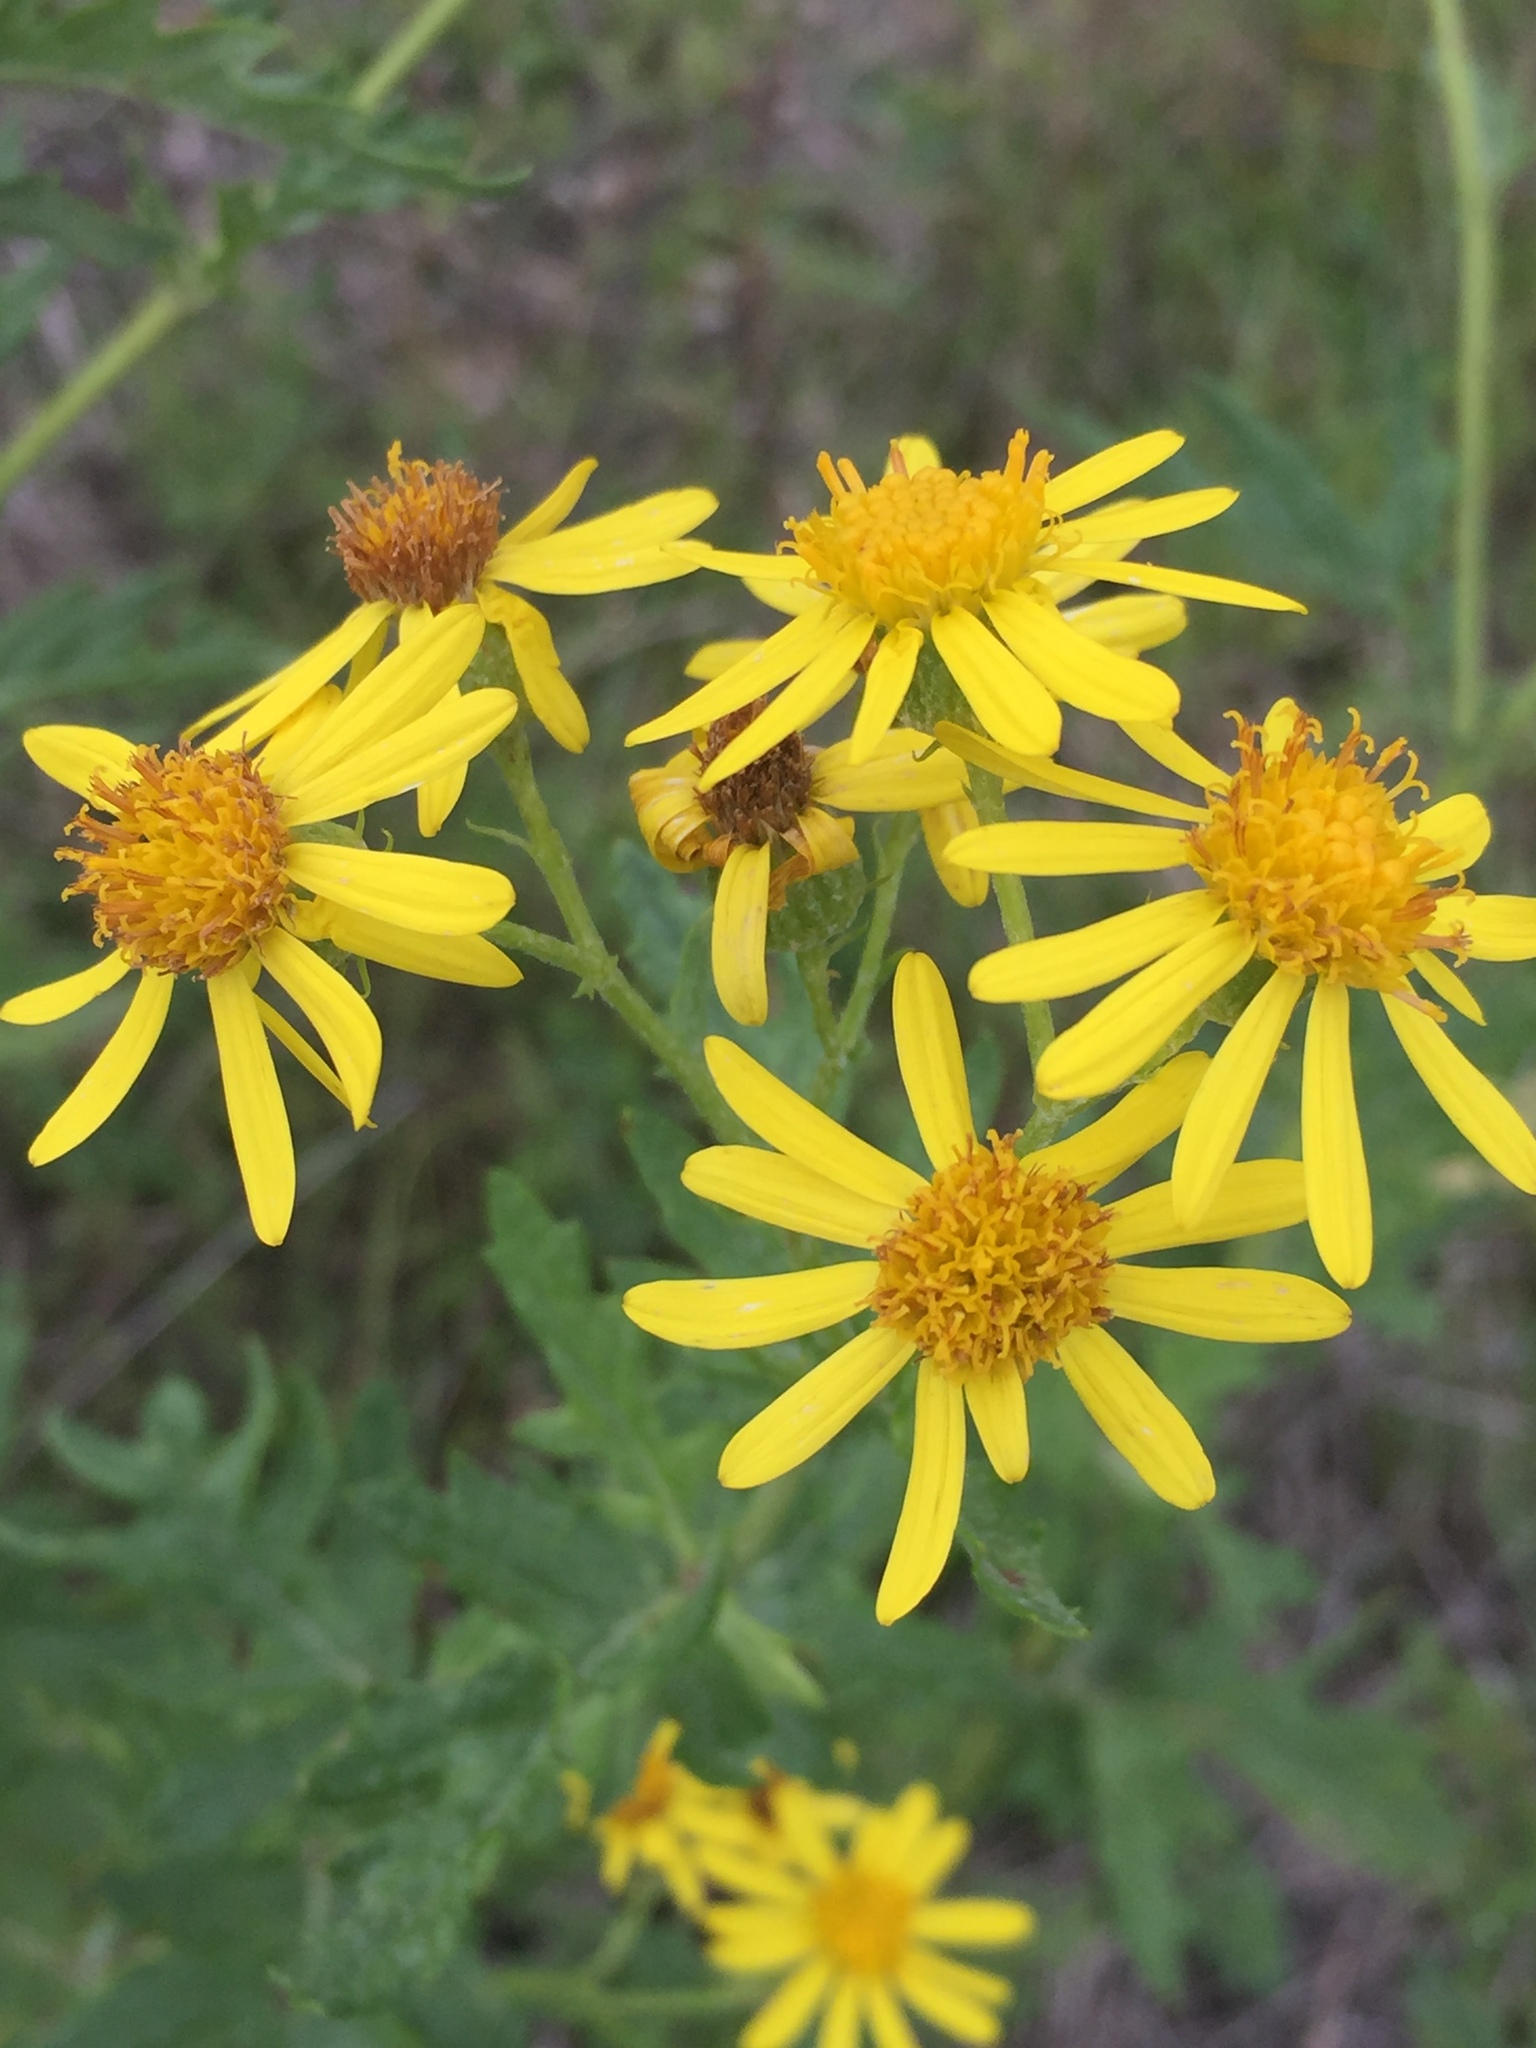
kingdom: Plantae
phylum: Tracheophyta
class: Magnoliopsida
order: Asterales
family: Asteraceae
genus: Jacobaea
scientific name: Jacobaea erucifolia
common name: Hoary ragwort
